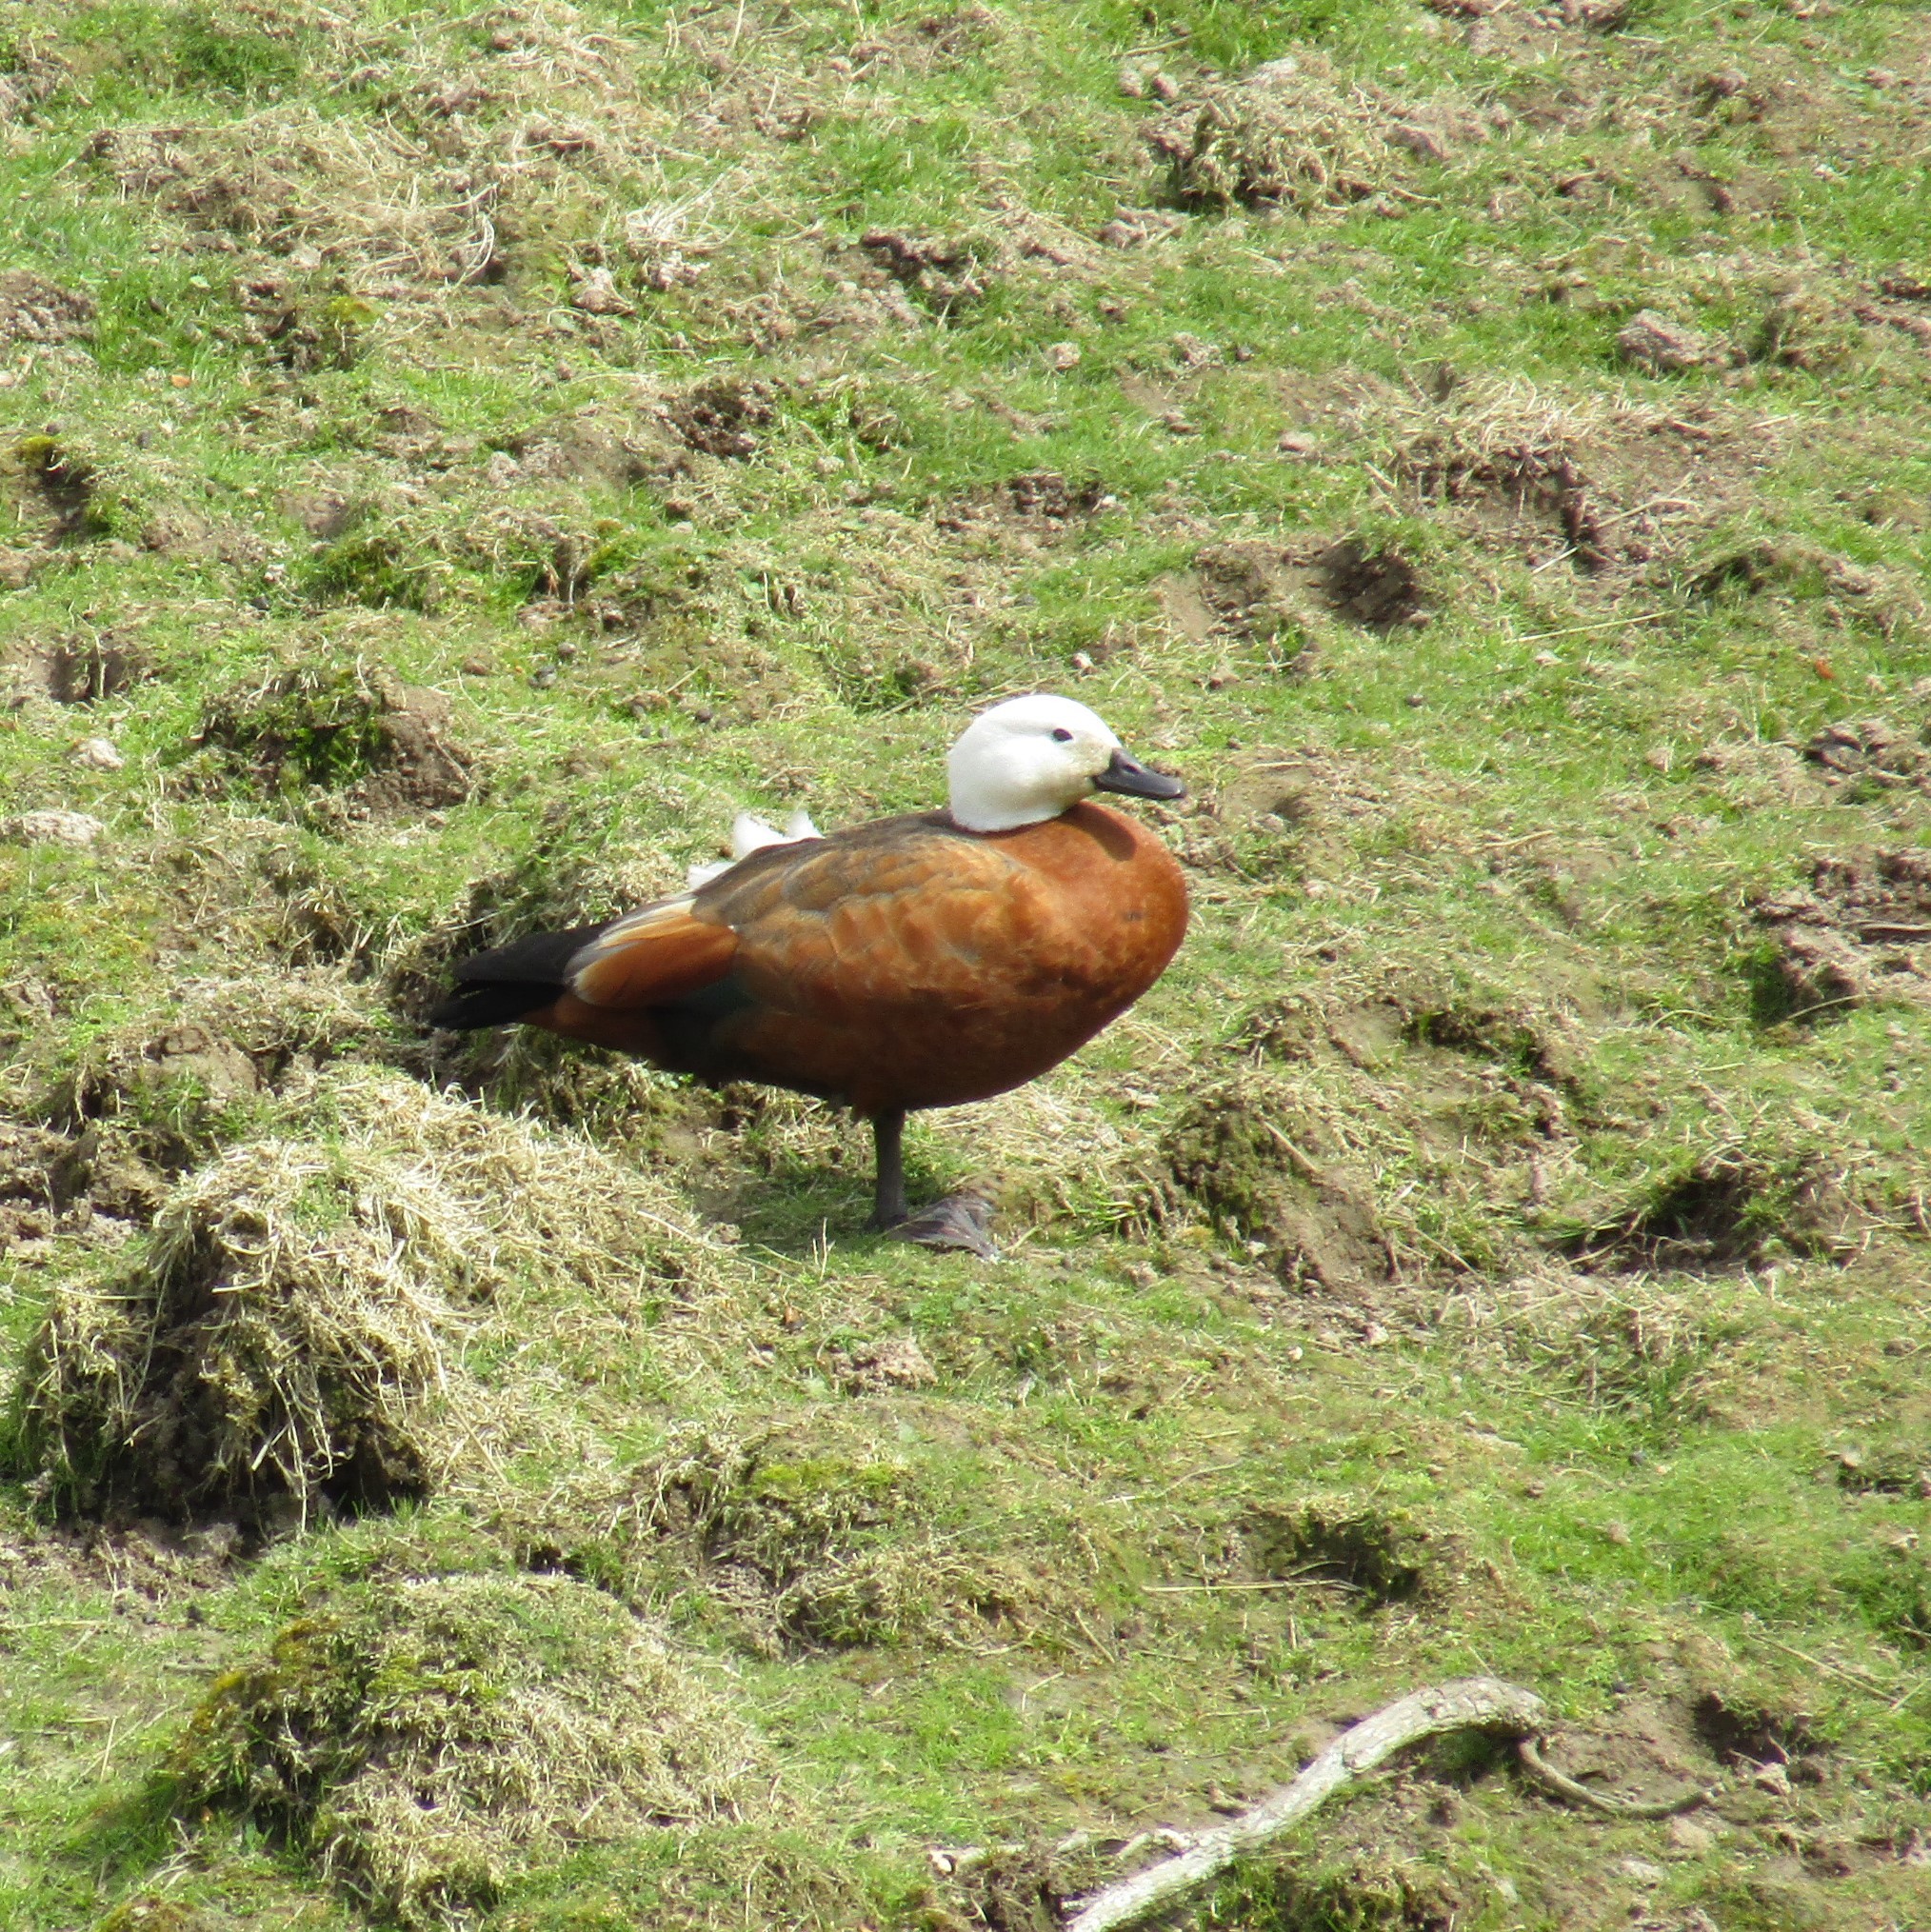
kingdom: Animalia
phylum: Chordata
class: Aves
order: Anseriformes
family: Anatidae
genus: Tadorna
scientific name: Tadorna variegata
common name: Paradise shelduck
